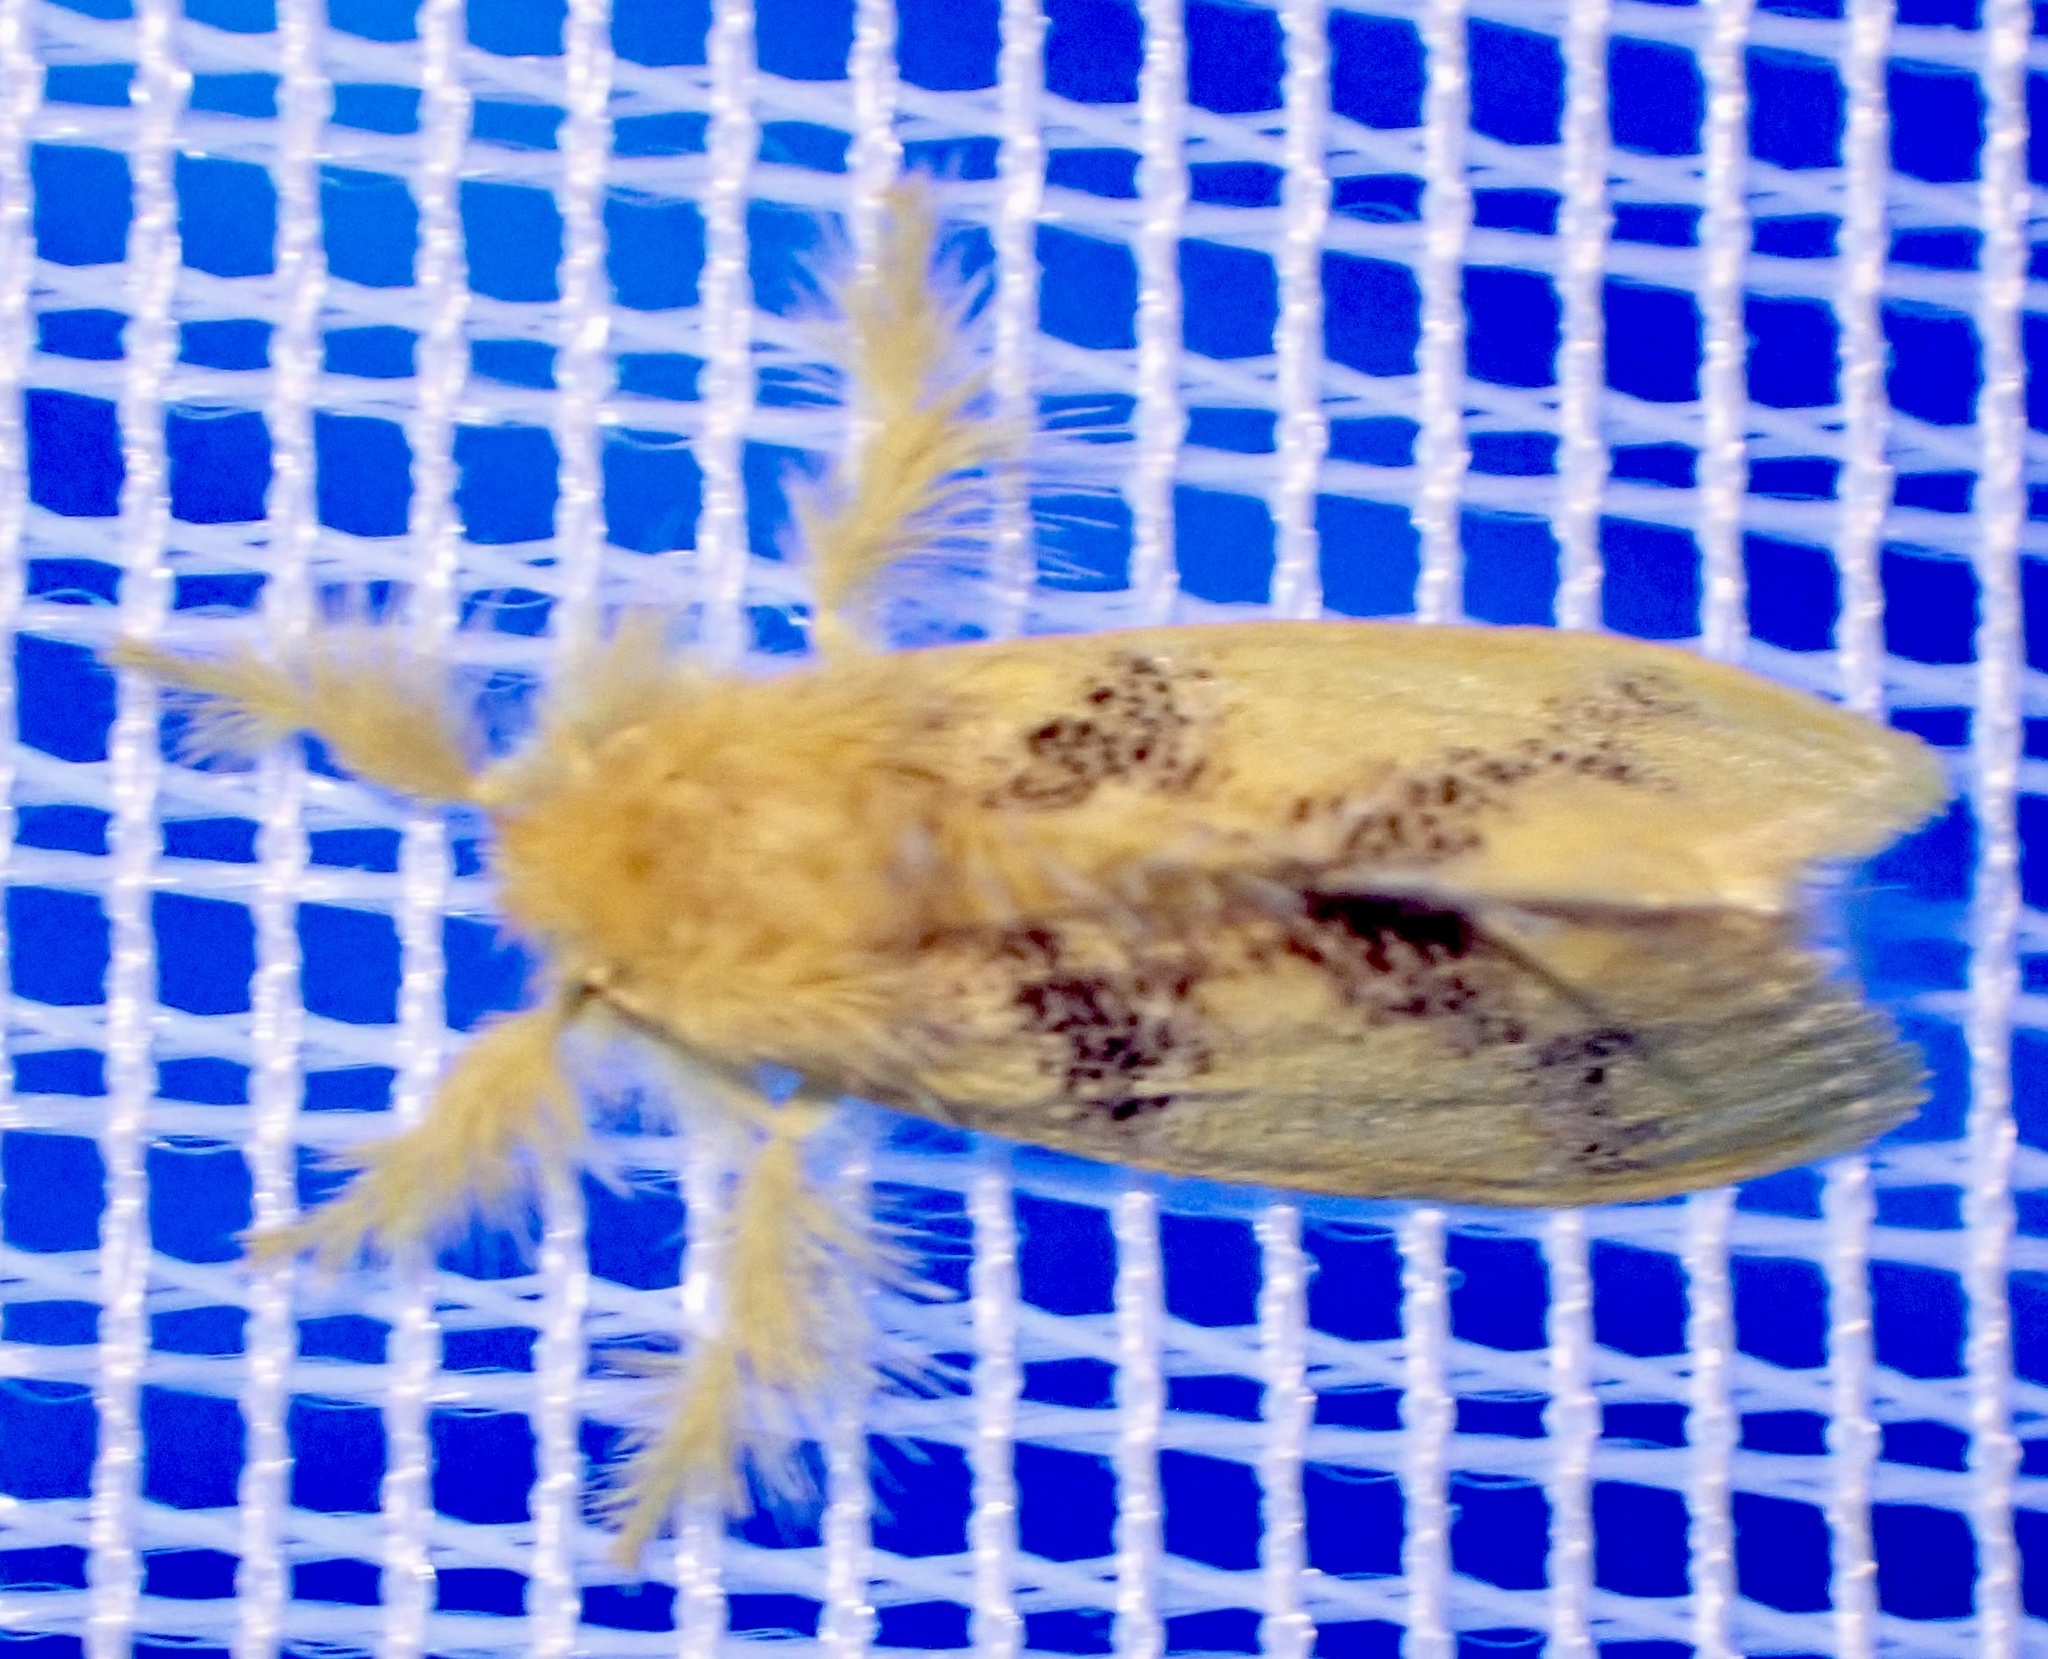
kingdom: Animalia
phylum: Arthropoda
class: Insecta
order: Lepidoptera
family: Erebidae
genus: Euproctis
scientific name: Euproctis aethiopica
